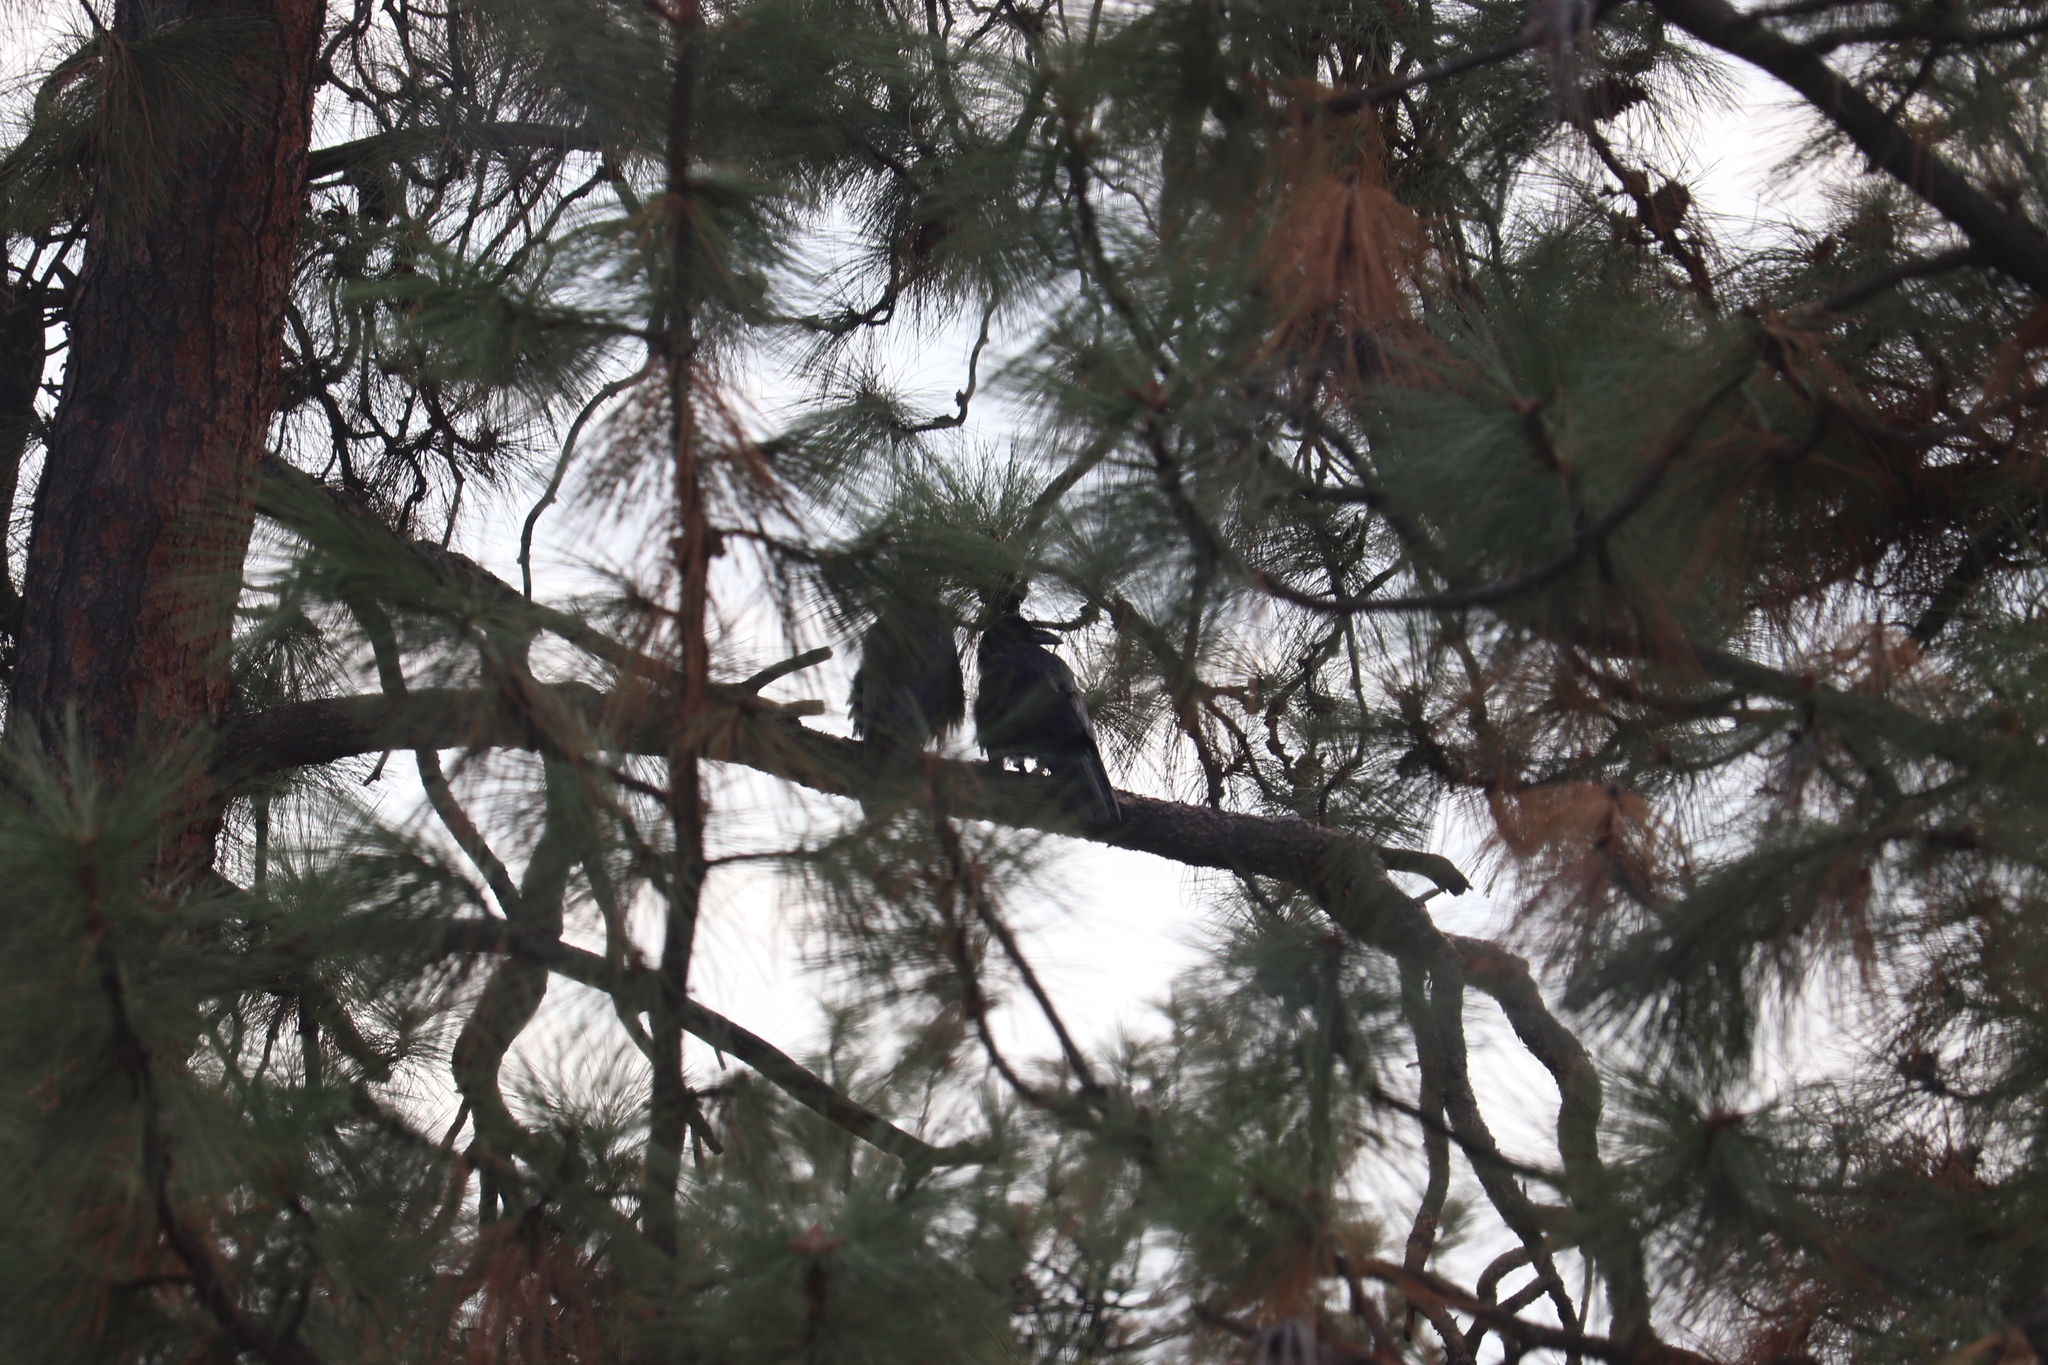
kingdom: Animalia
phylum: Chordata
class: Aves
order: Passeriformes
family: Corvidae
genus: Corvus
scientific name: Corvus corax
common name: Common raven
